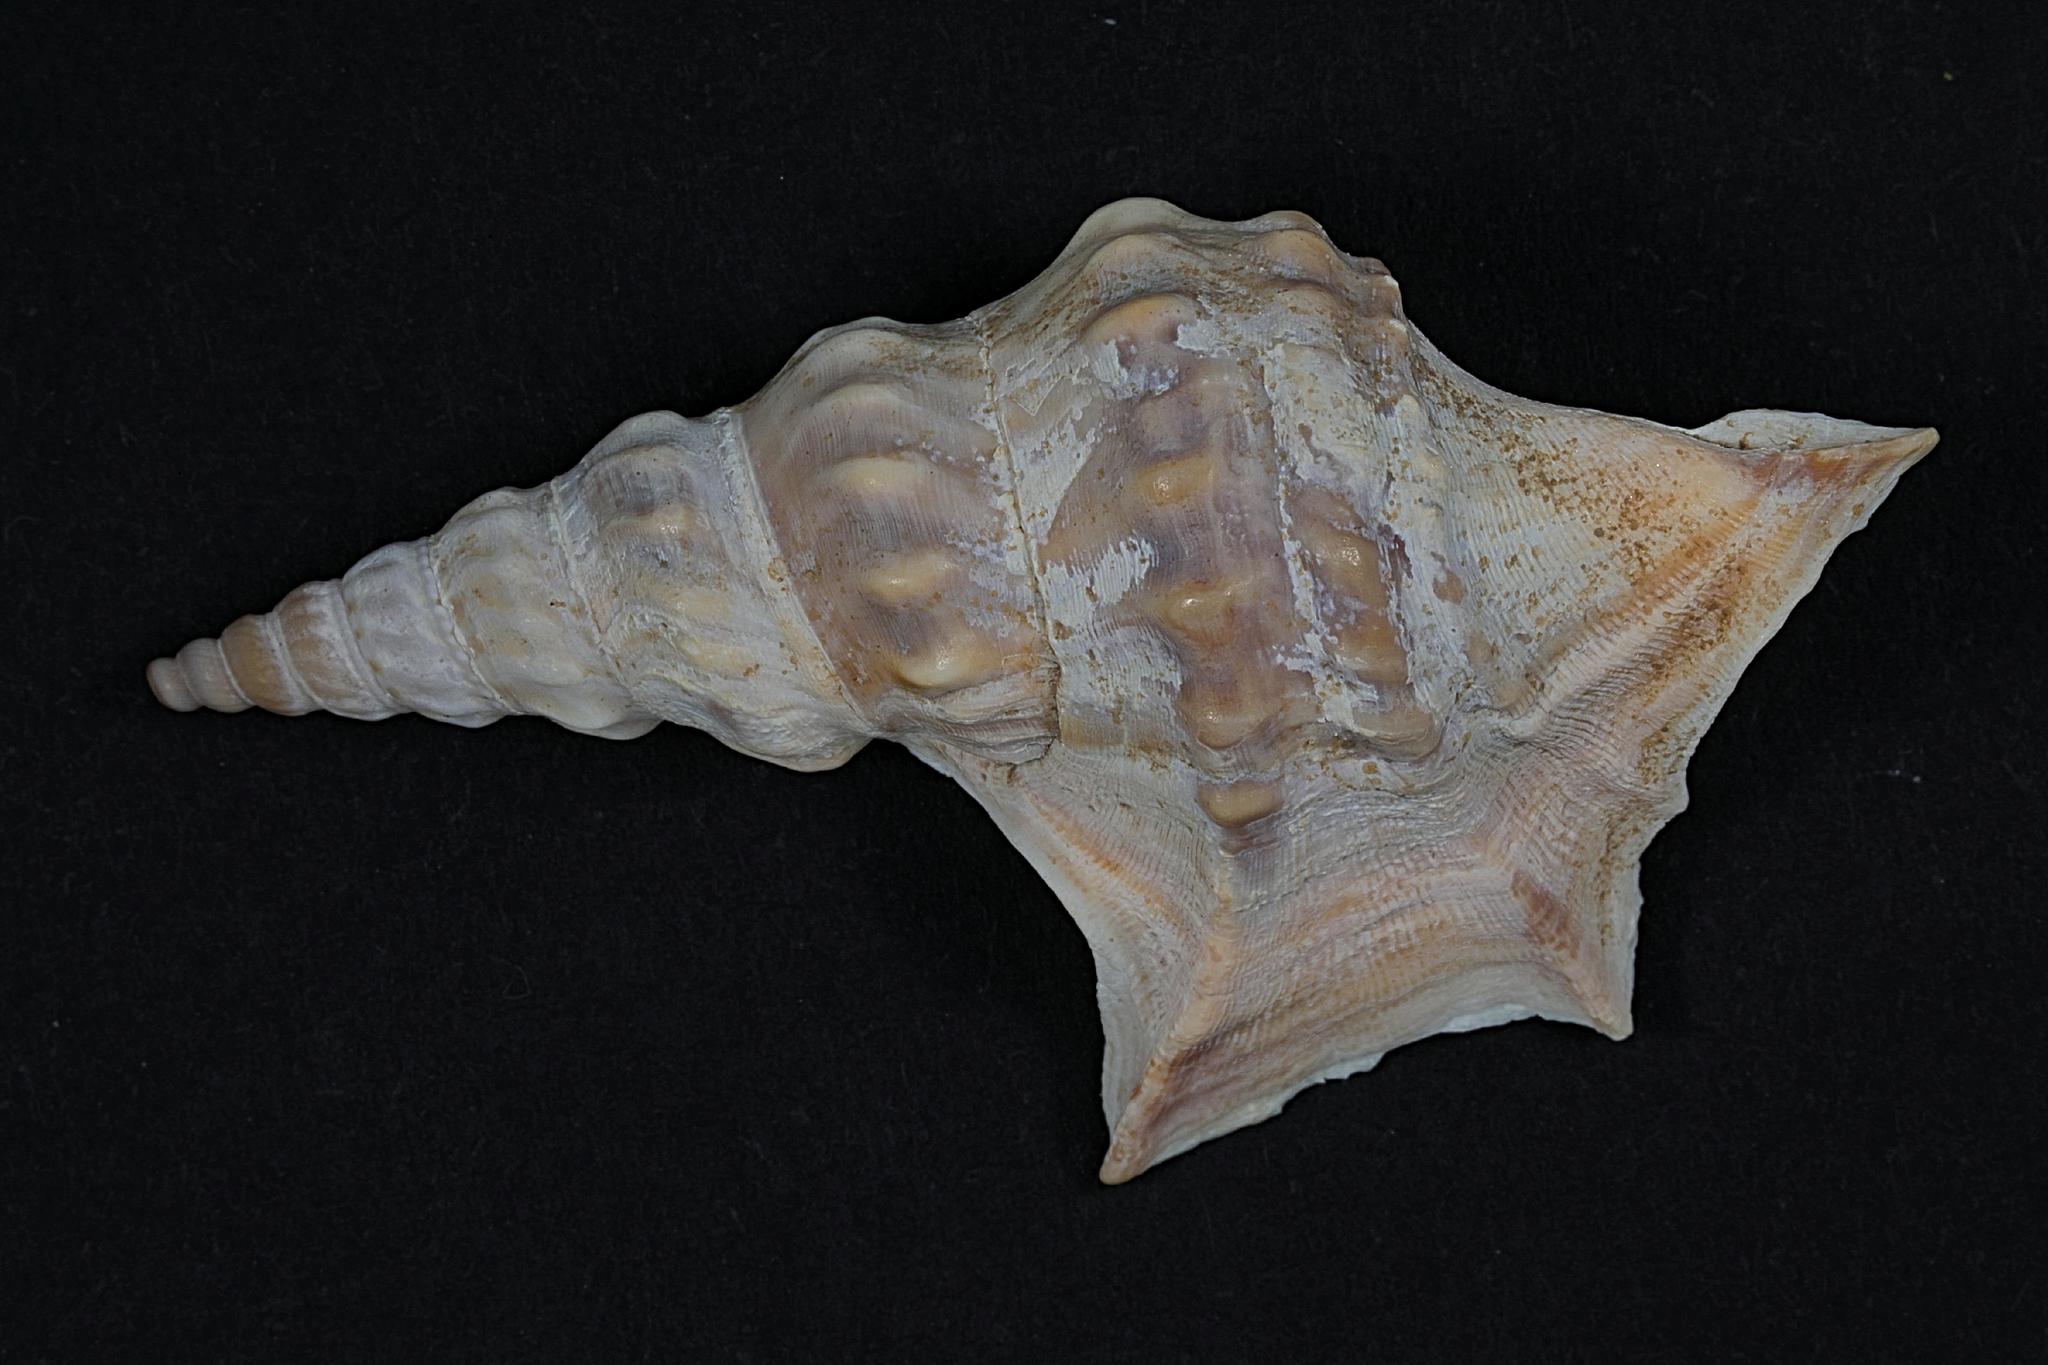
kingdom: Animalia
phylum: Mollusca
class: Gastropoda
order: Littorinimorpha
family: Aporrhaidae
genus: Aporrhais
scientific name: Aporrhais pespelecani
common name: Common pelican’s foot
